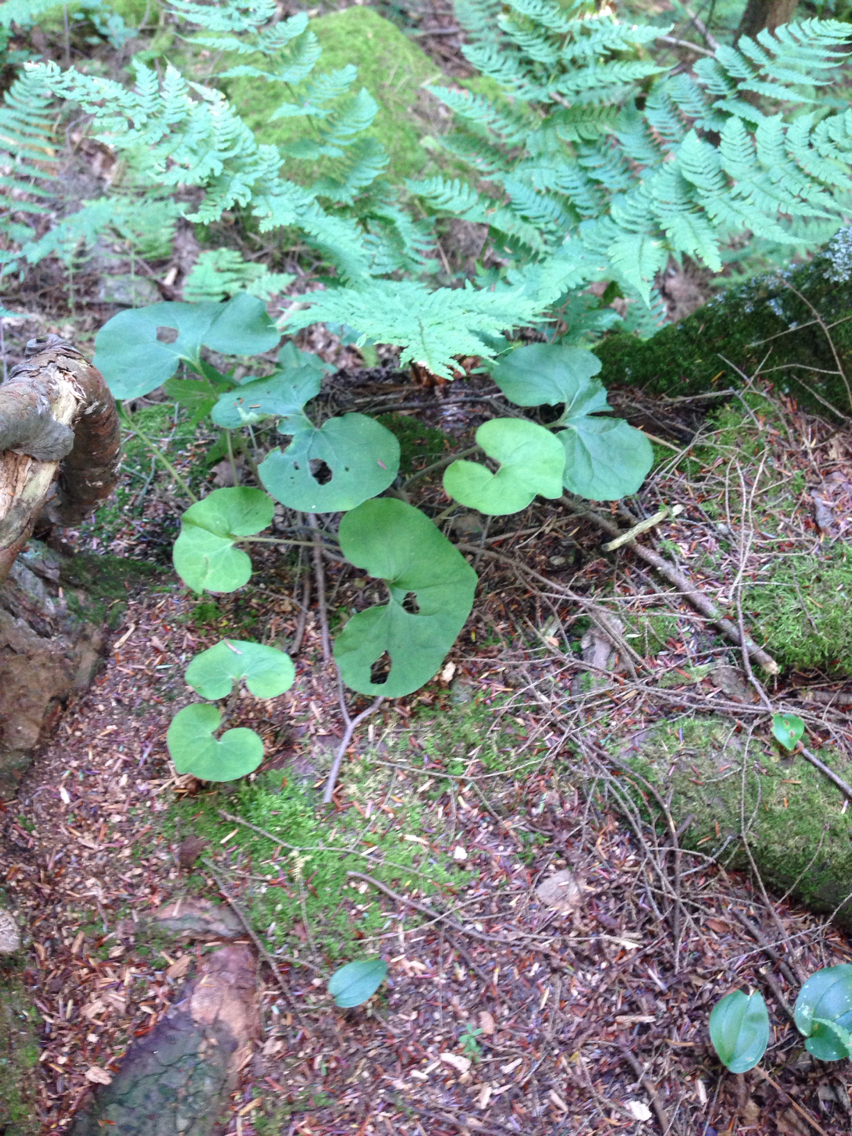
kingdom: Plantae
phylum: Tracheophyta
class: Magnoliopsida
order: Piperales
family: Aristolochiaceae
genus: Asarum
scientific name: Asarum canadense
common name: Wild ginger
